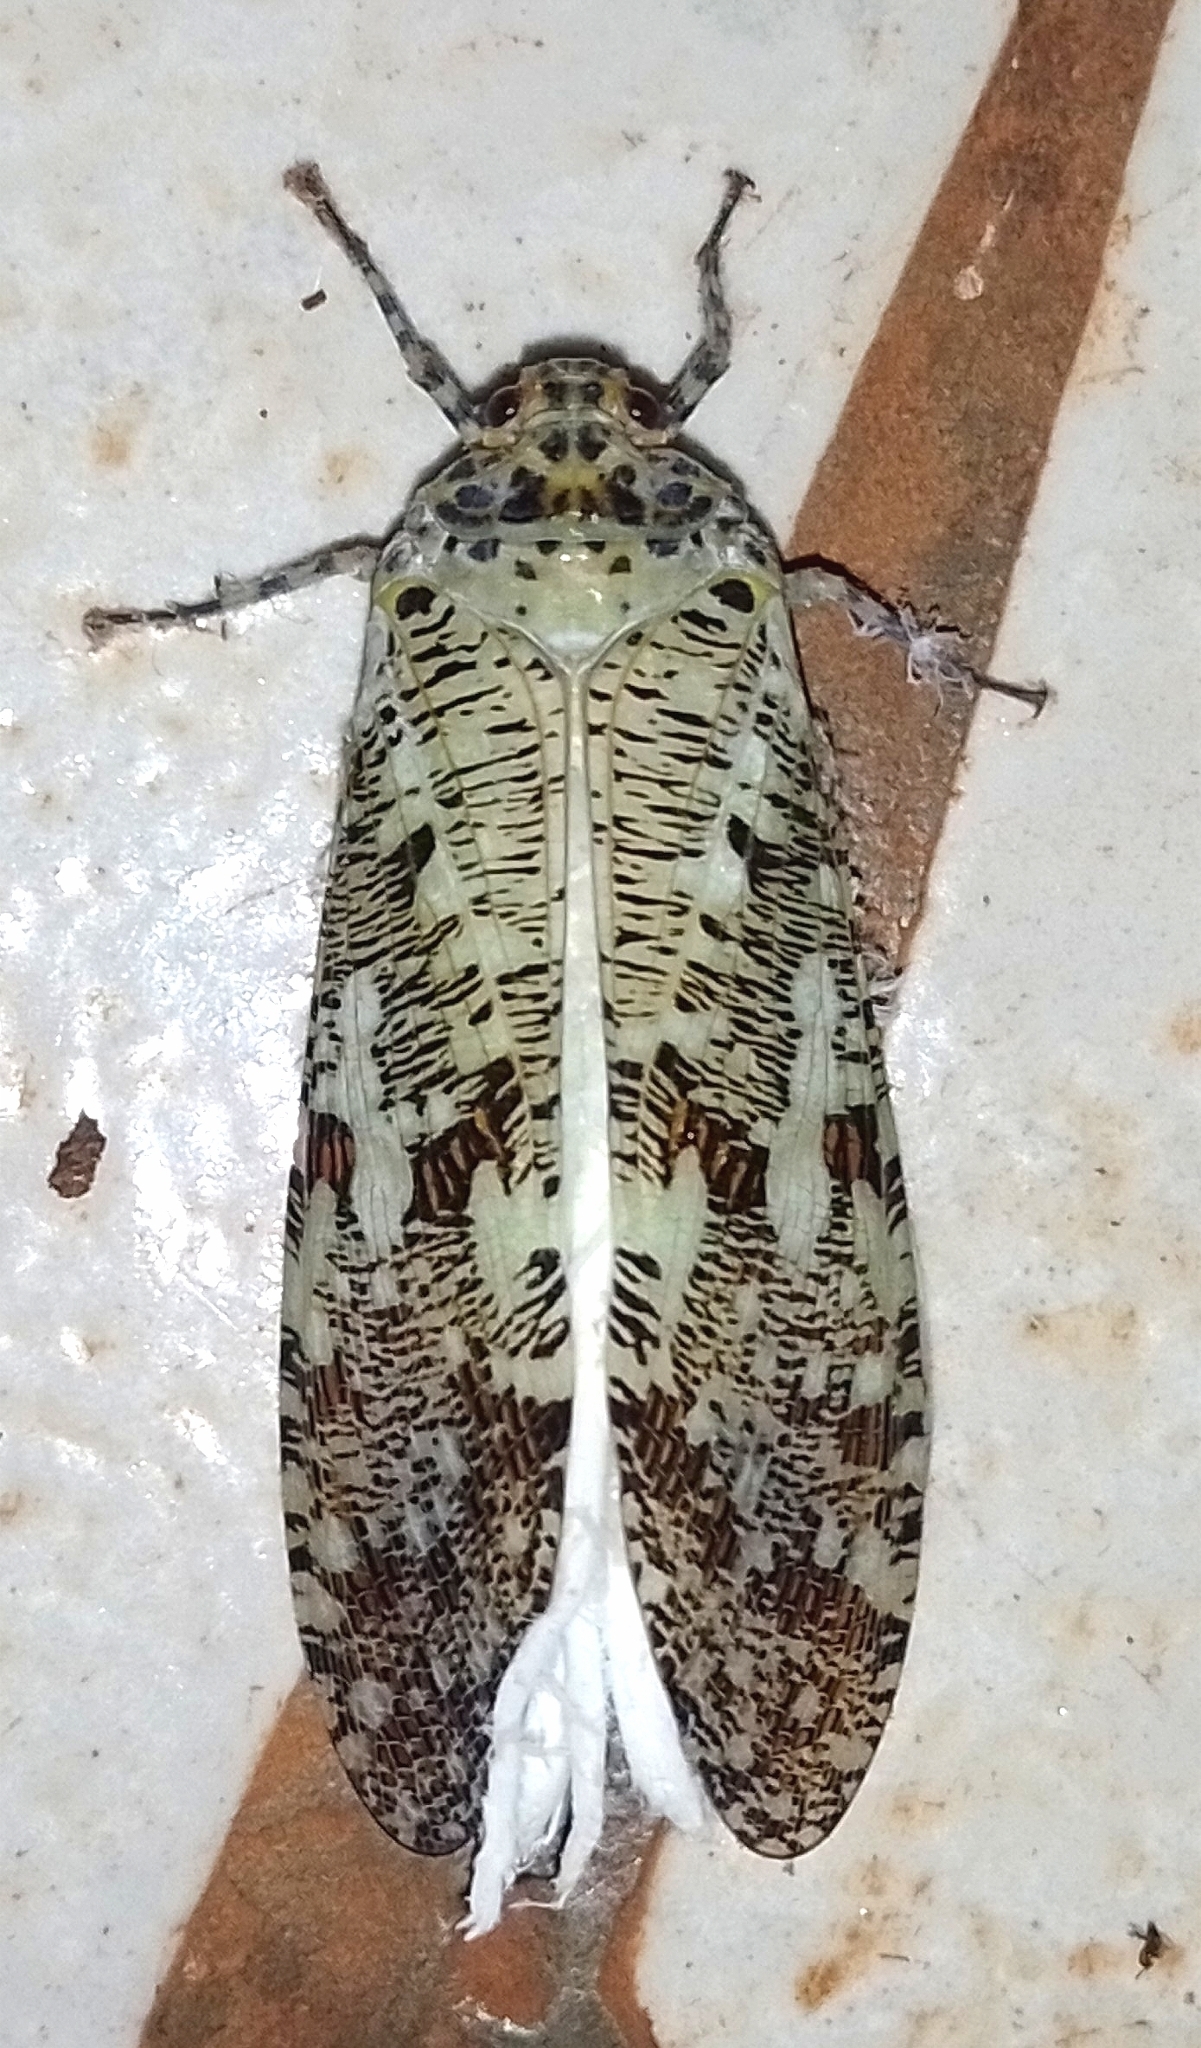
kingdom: Animalia
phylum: Arthropoda
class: Insecta
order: Hemiptera
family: Fulgoridae
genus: Phenax
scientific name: Phenax variegata
